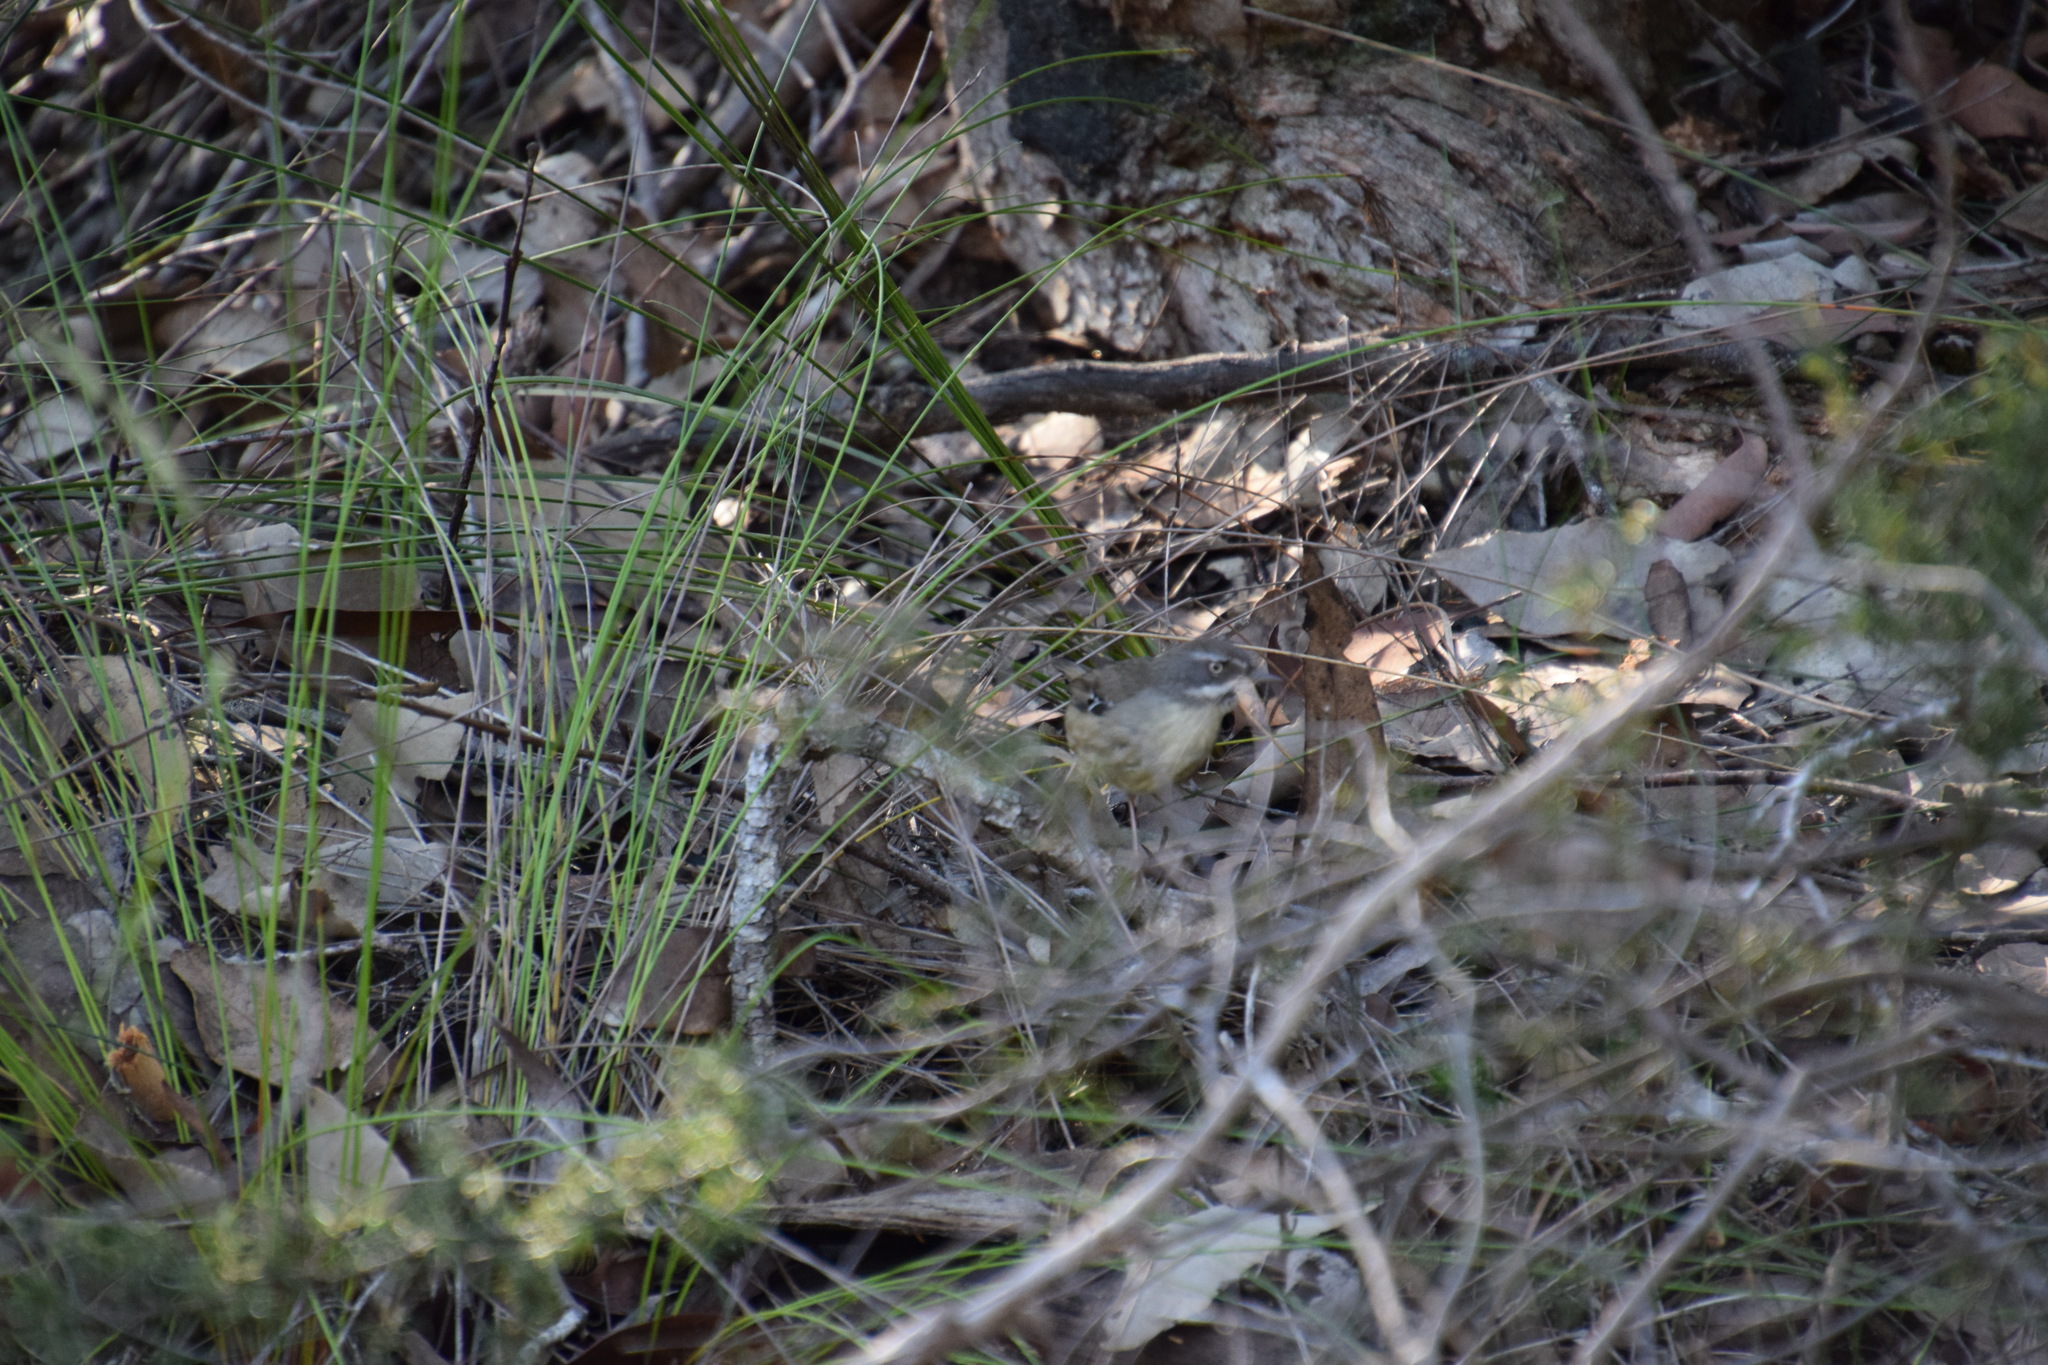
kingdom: Animalia
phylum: Chordata
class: Aves
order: Passeriformes
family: Acanthizidae
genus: Sericornis
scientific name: Sericornis frontalis
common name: White-browed scrubwren
